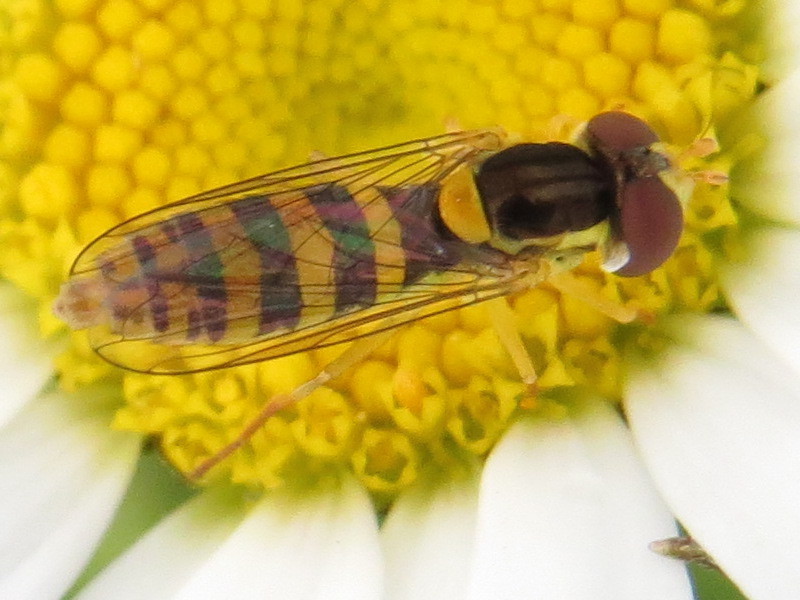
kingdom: Animalia
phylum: Arthropoda
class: Insecta
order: Diptera
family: Syrphidae
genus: Sphaerophoria
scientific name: Sphaerophoria
